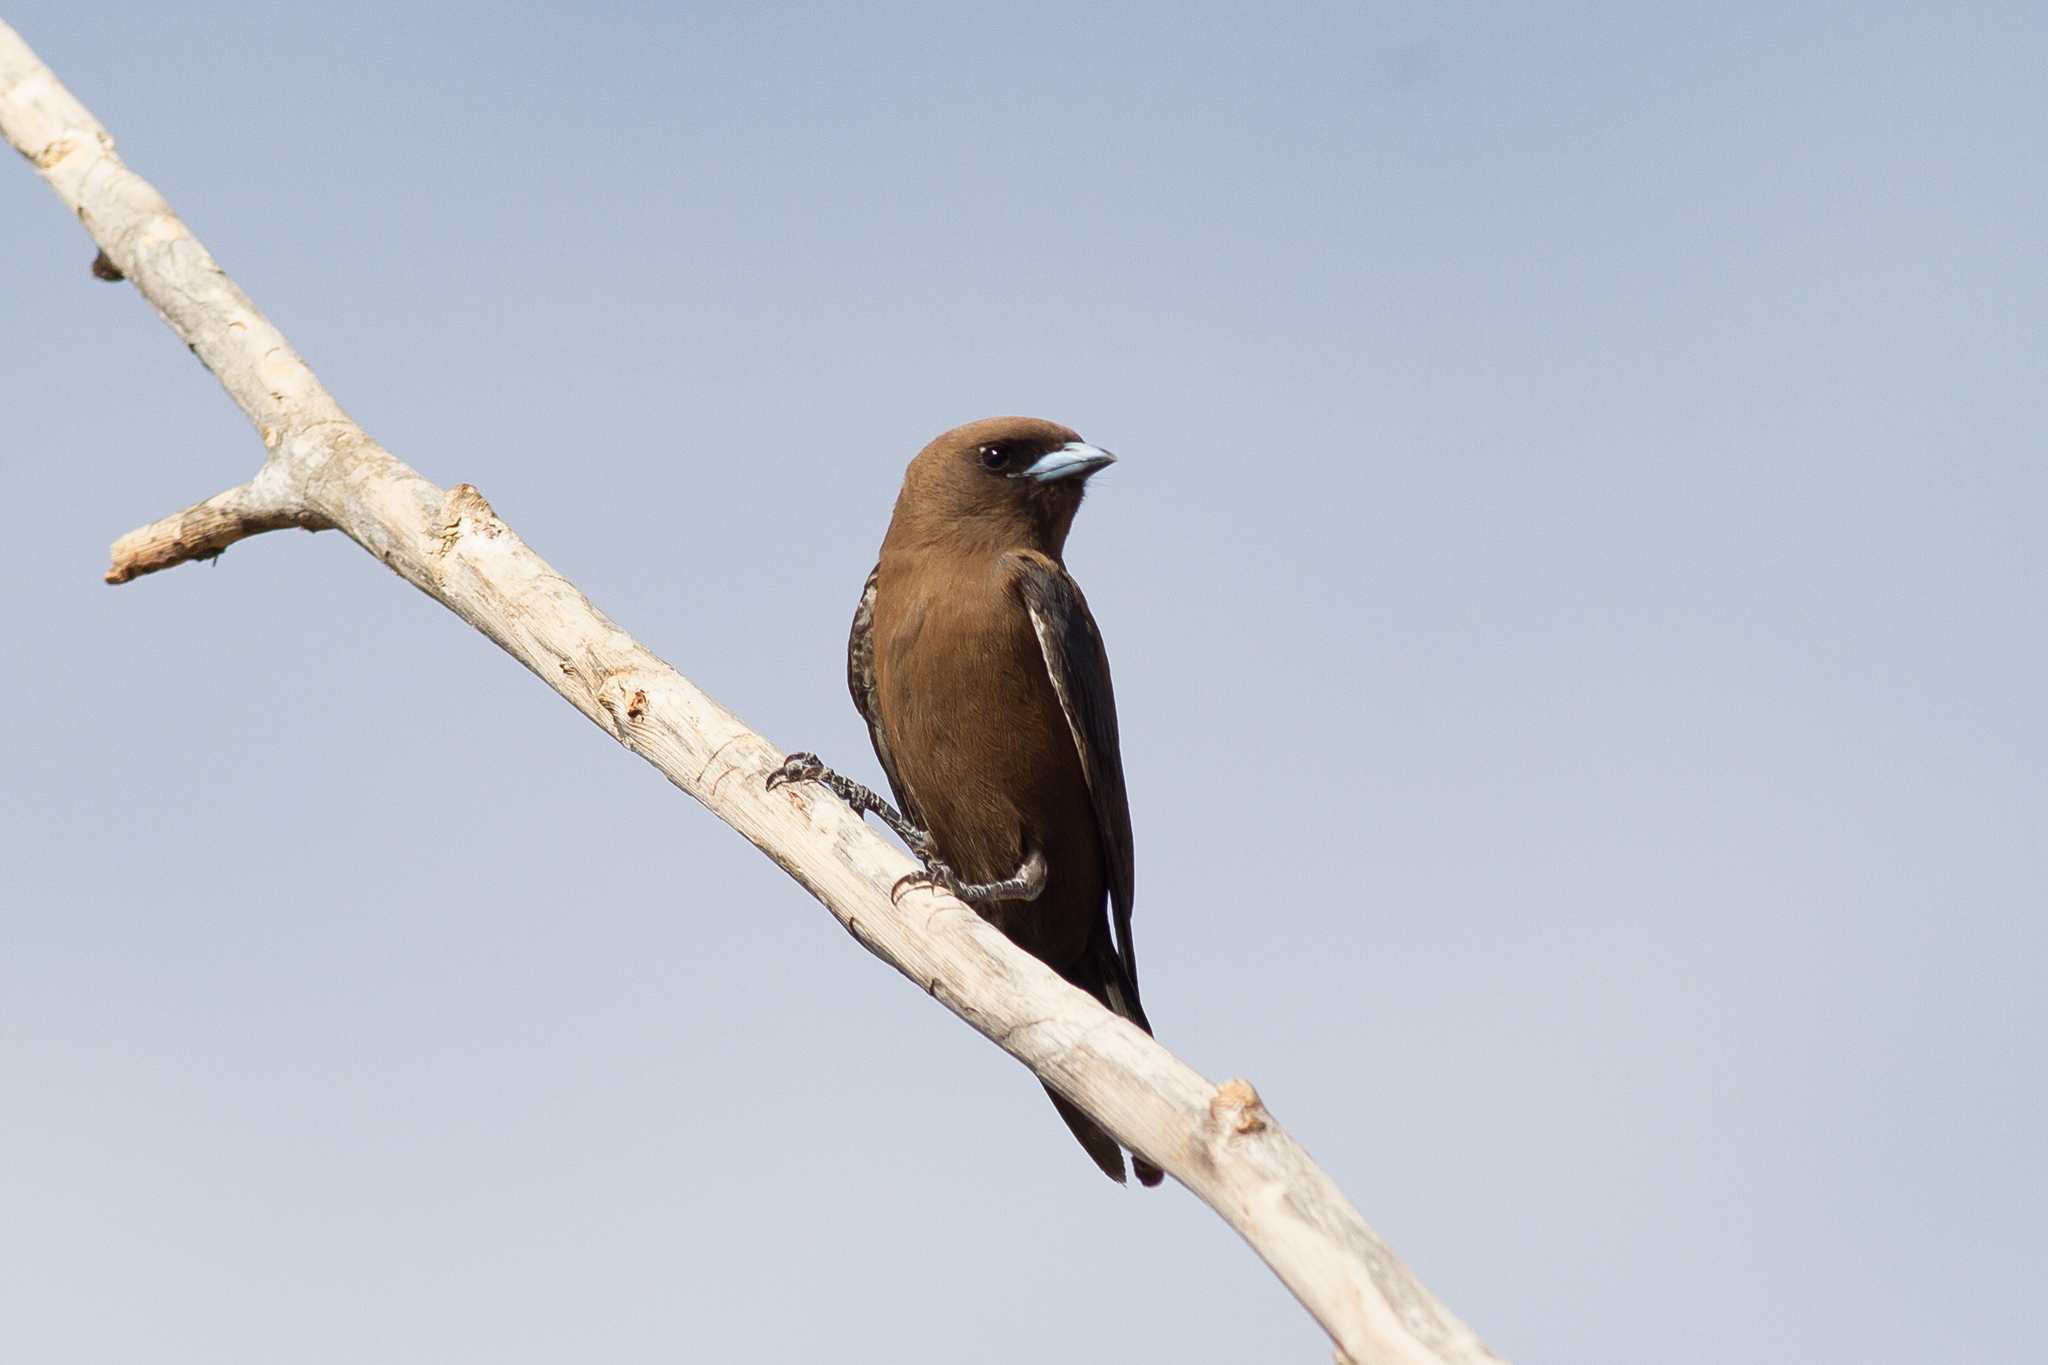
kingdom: Animalia
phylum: Chordata
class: Aves
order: Passeriformes
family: Artamidae
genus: Artamus
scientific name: Artamus minor
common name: Little woodswallow
